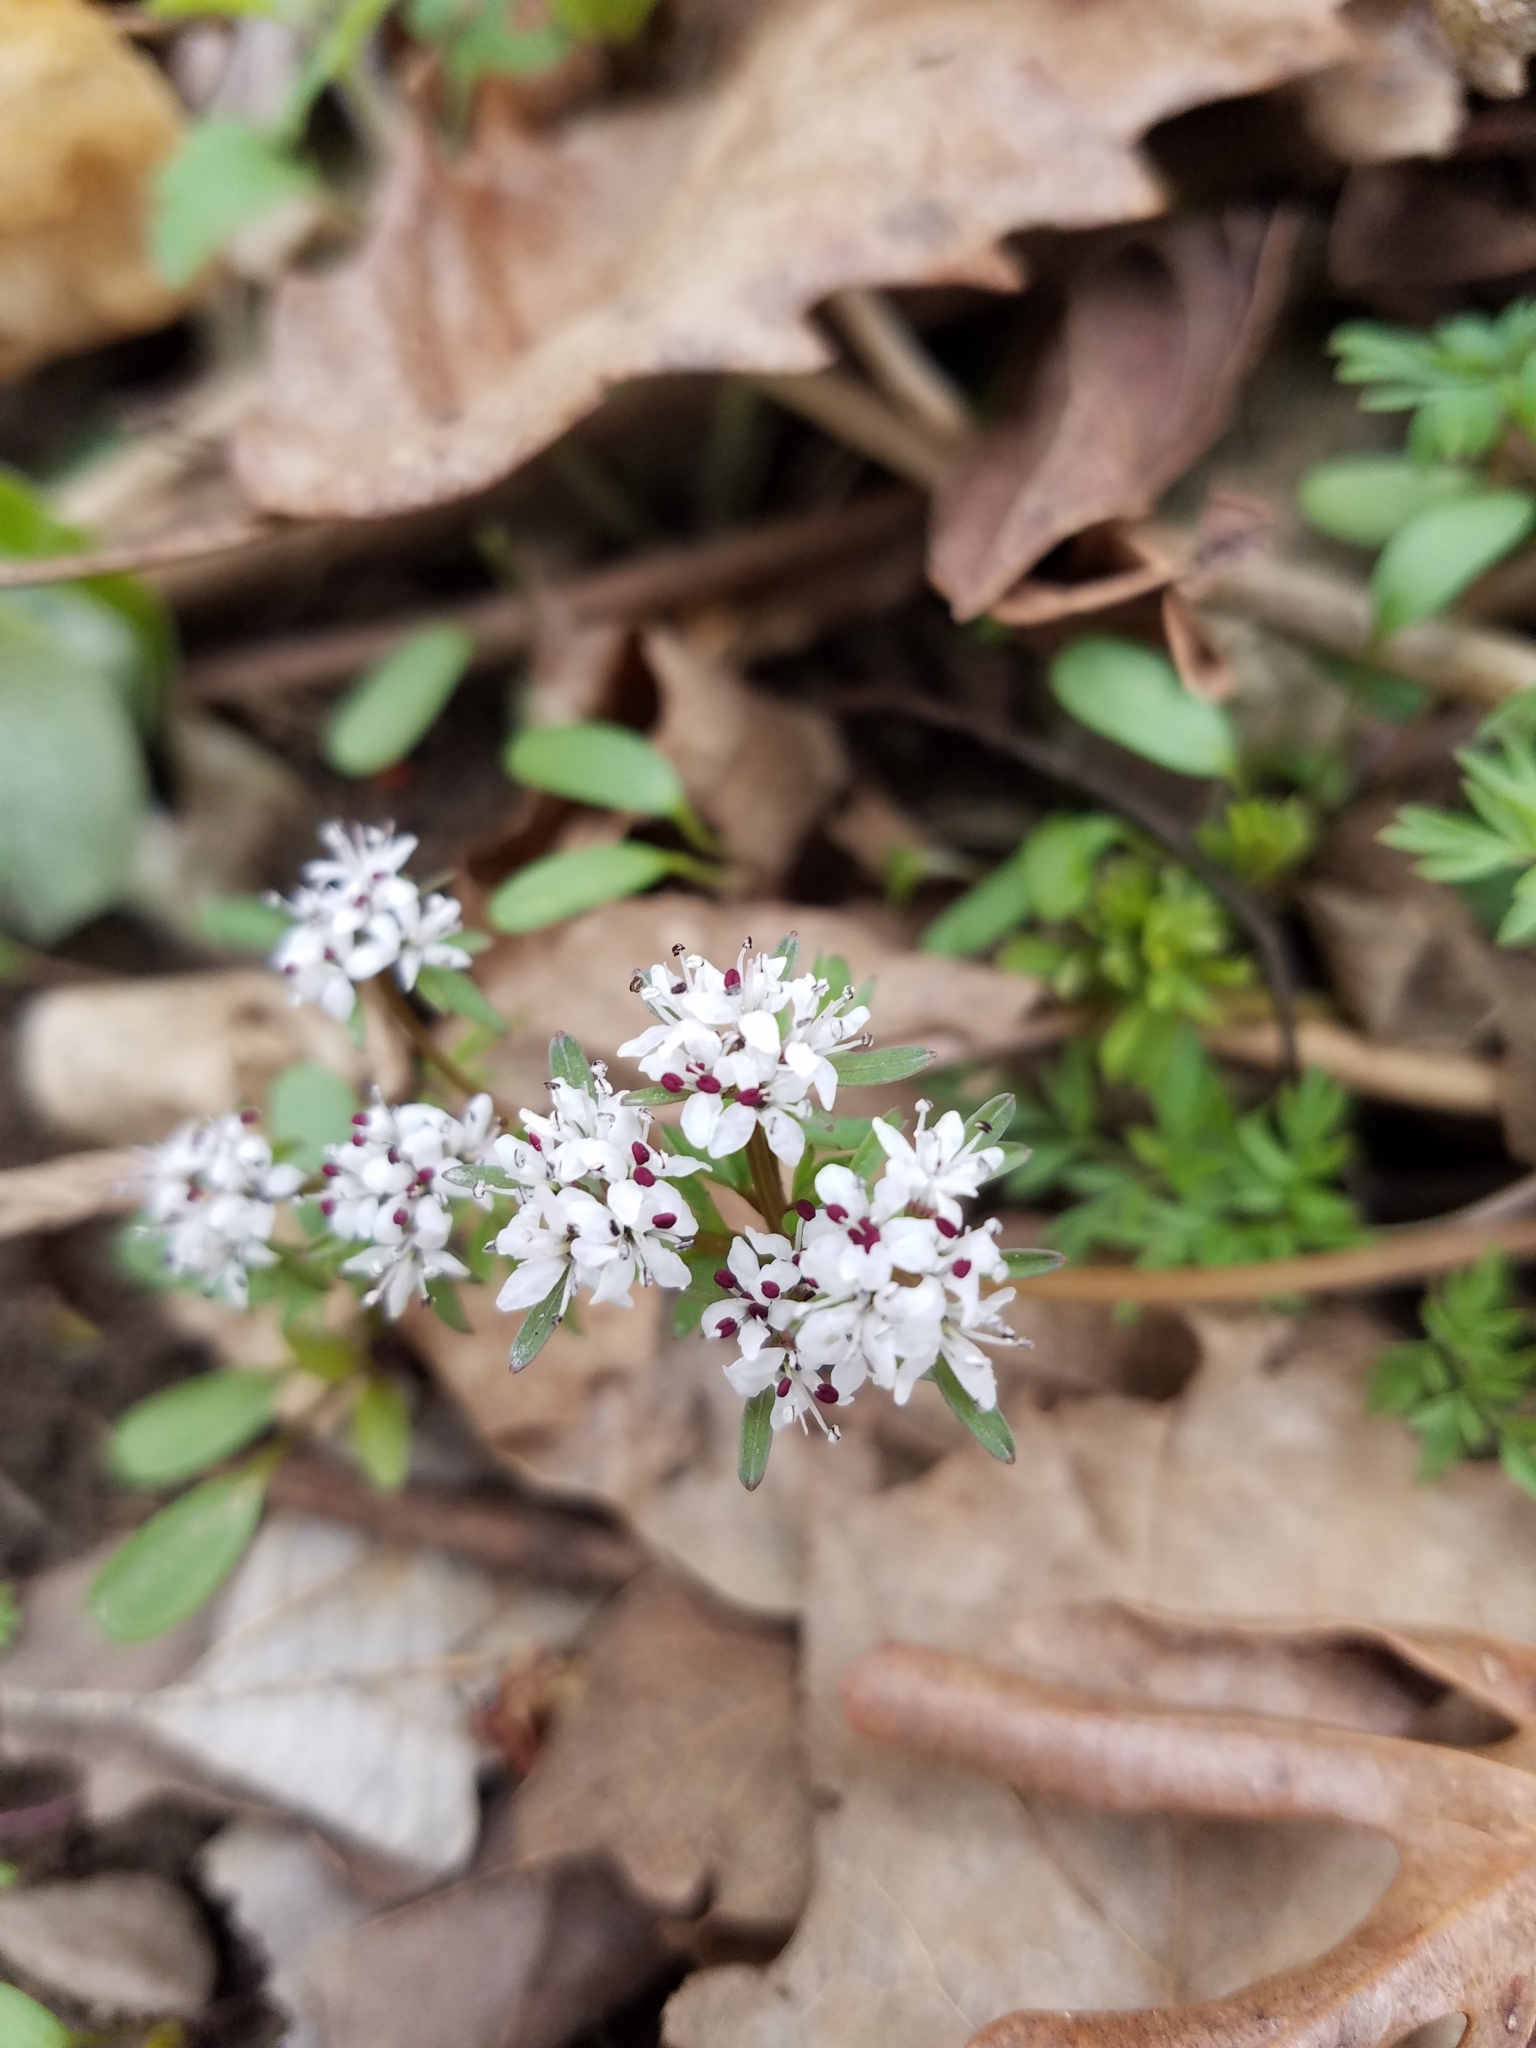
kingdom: Plantae
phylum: Tracheophyta
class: Magnoliopsida
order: Apiales
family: Apiaceae
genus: Erigenia
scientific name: Erigenia bulbosa
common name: Pepper-and-salt
